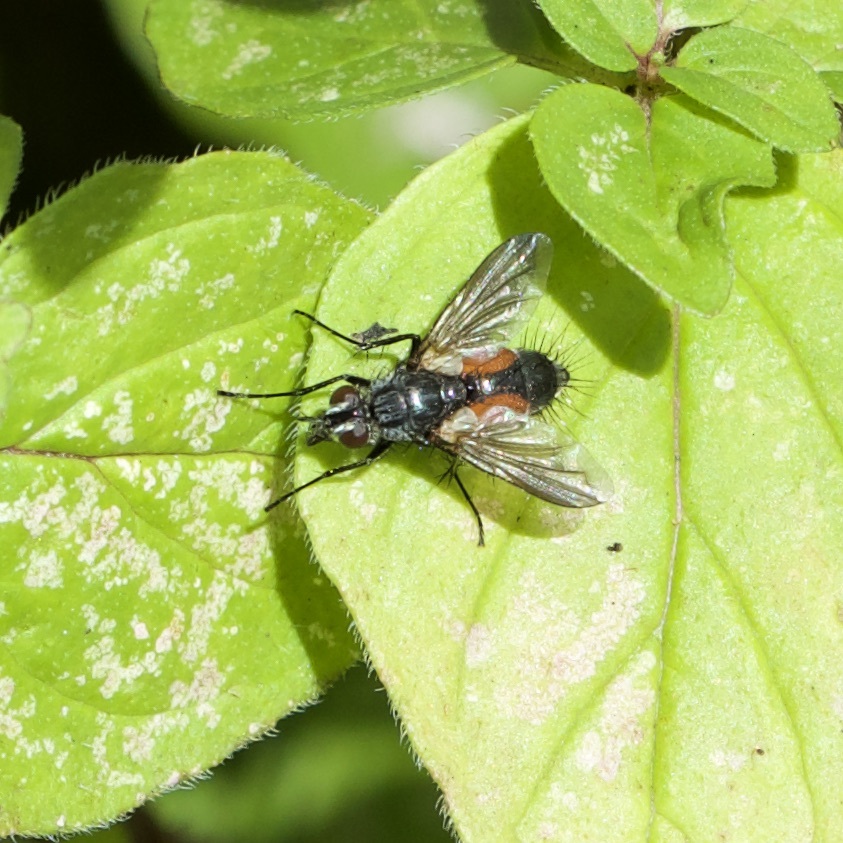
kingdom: Animalia
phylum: Arthropoda
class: Insecta
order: Diptera
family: Tachinidae
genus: Eriothrix
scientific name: Eriothrix rufomaculatus
